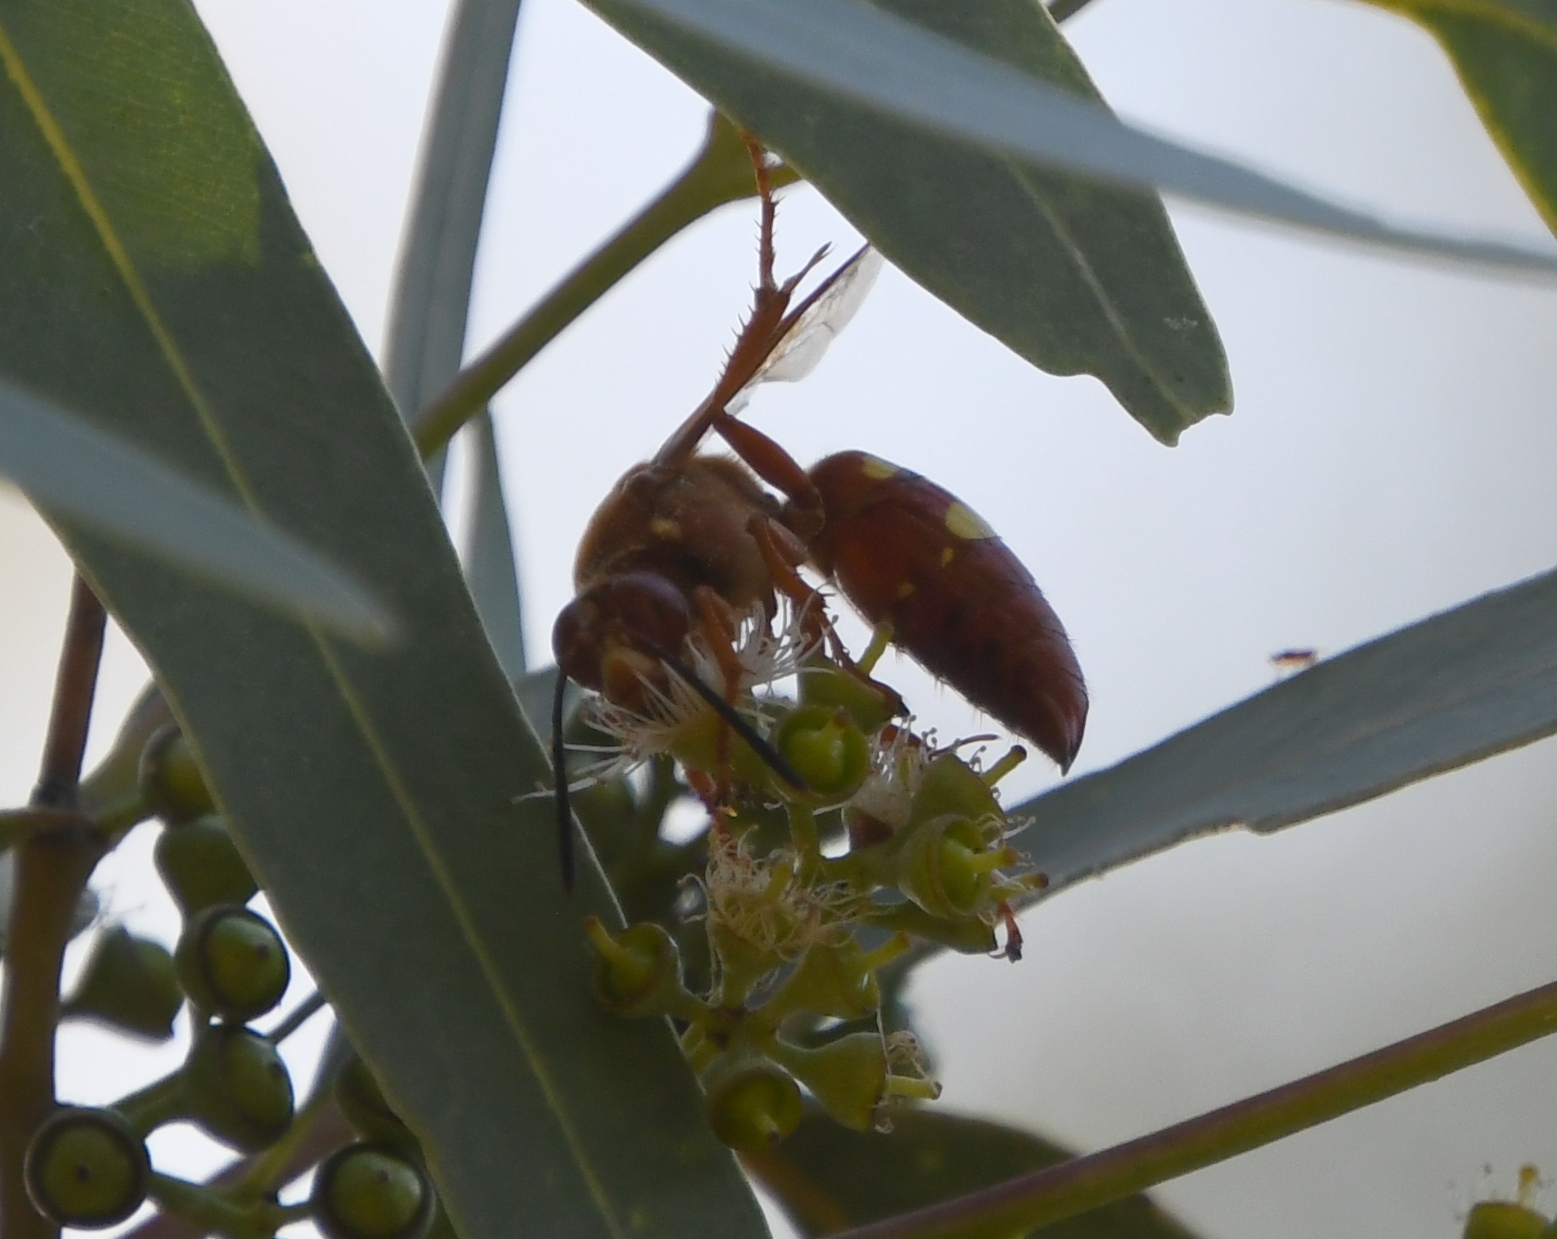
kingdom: Animalia
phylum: Arthropoda
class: Insecta
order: Hymenoptera
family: Crabronidae
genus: Sphecius
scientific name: Sphecius convallis
